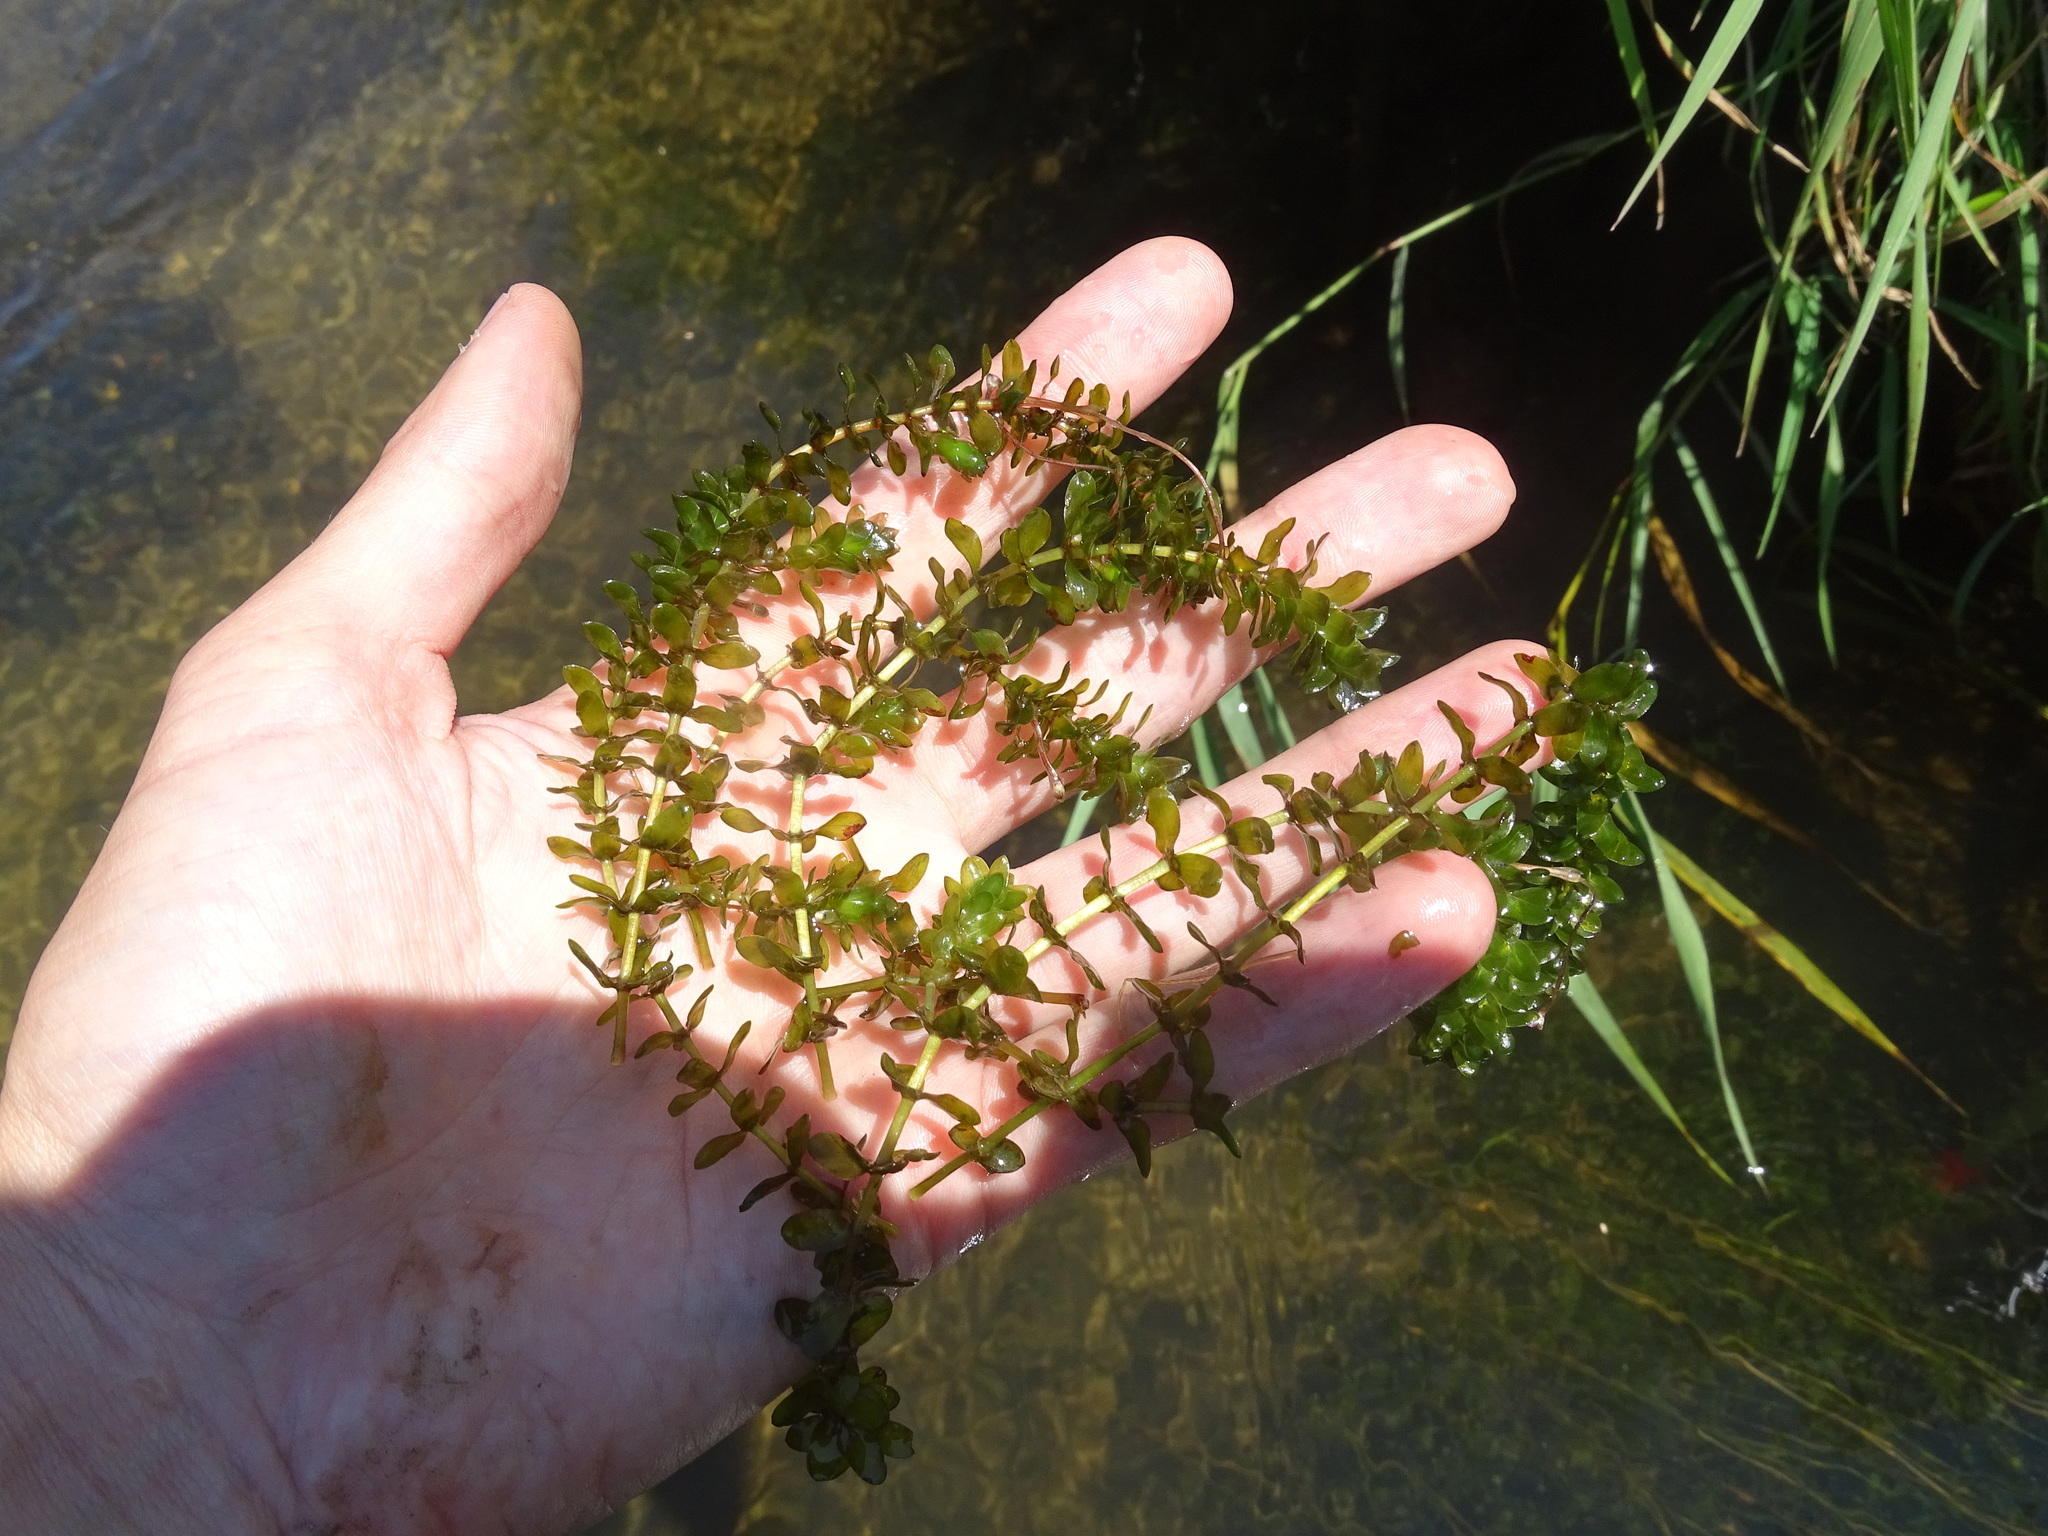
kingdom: Plantae
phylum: Tracheophyta
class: Liliopsida
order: Alismatales
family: Hydrocharitaceae
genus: Elodea
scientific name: Elodea canadensis
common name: Canadian waterweed
